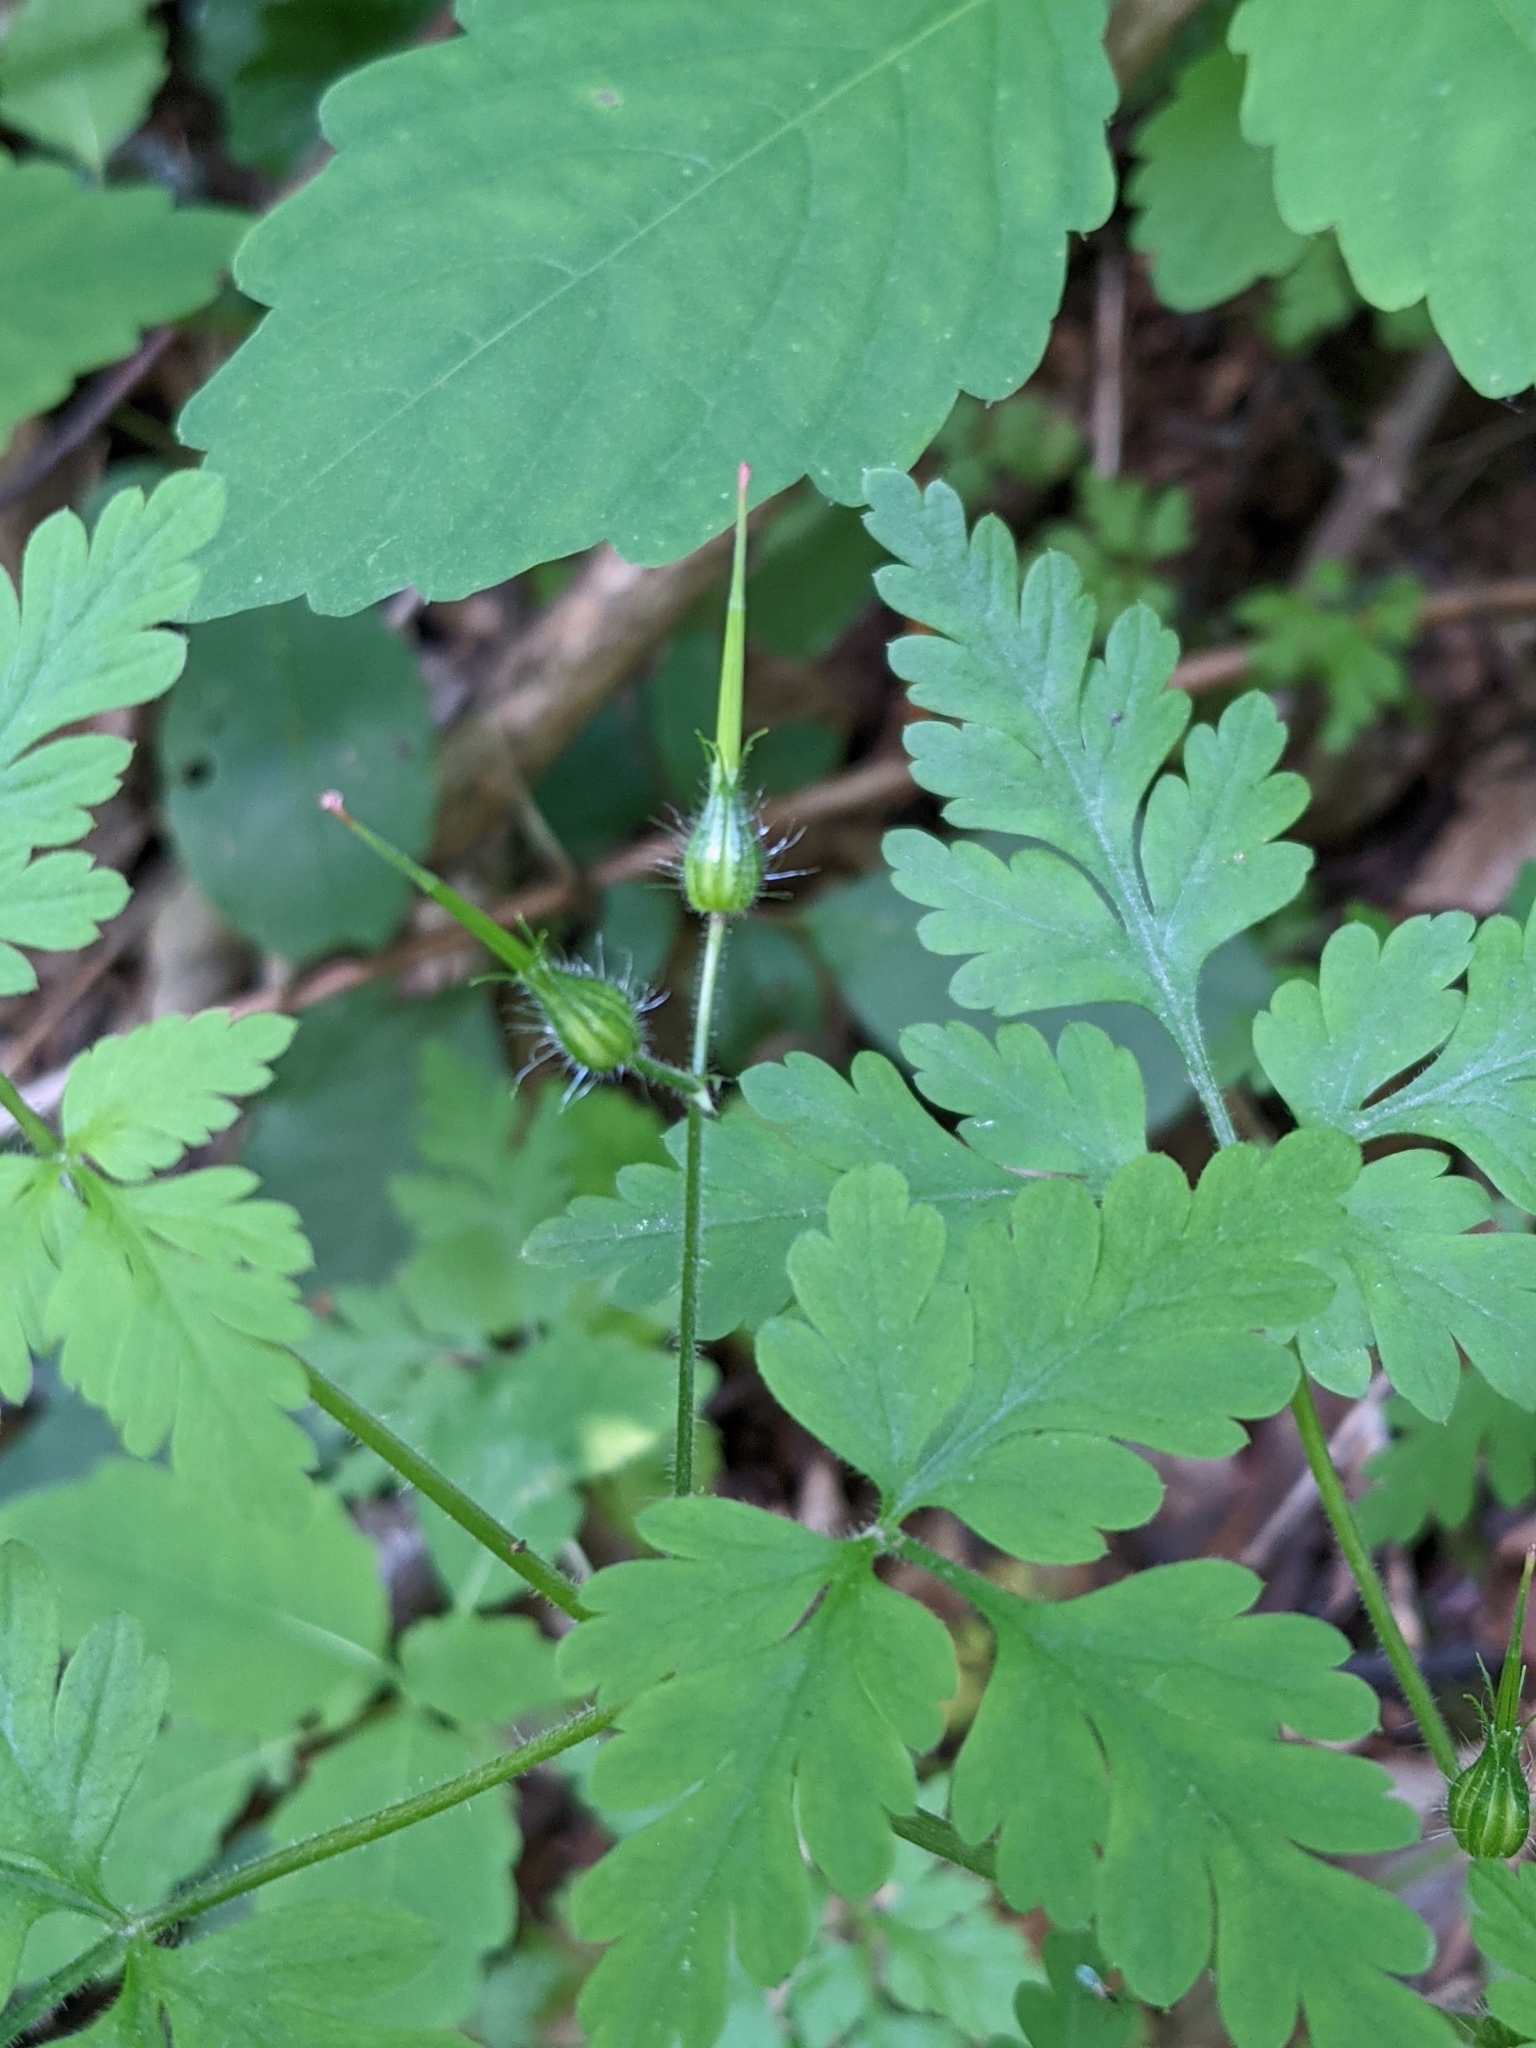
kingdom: Plantae
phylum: Tracheophyta
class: Magnoliopsida
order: Geraniales
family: Geraniaceae
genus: Geranium
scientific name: Geranium robertianum
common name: Herb-robert
